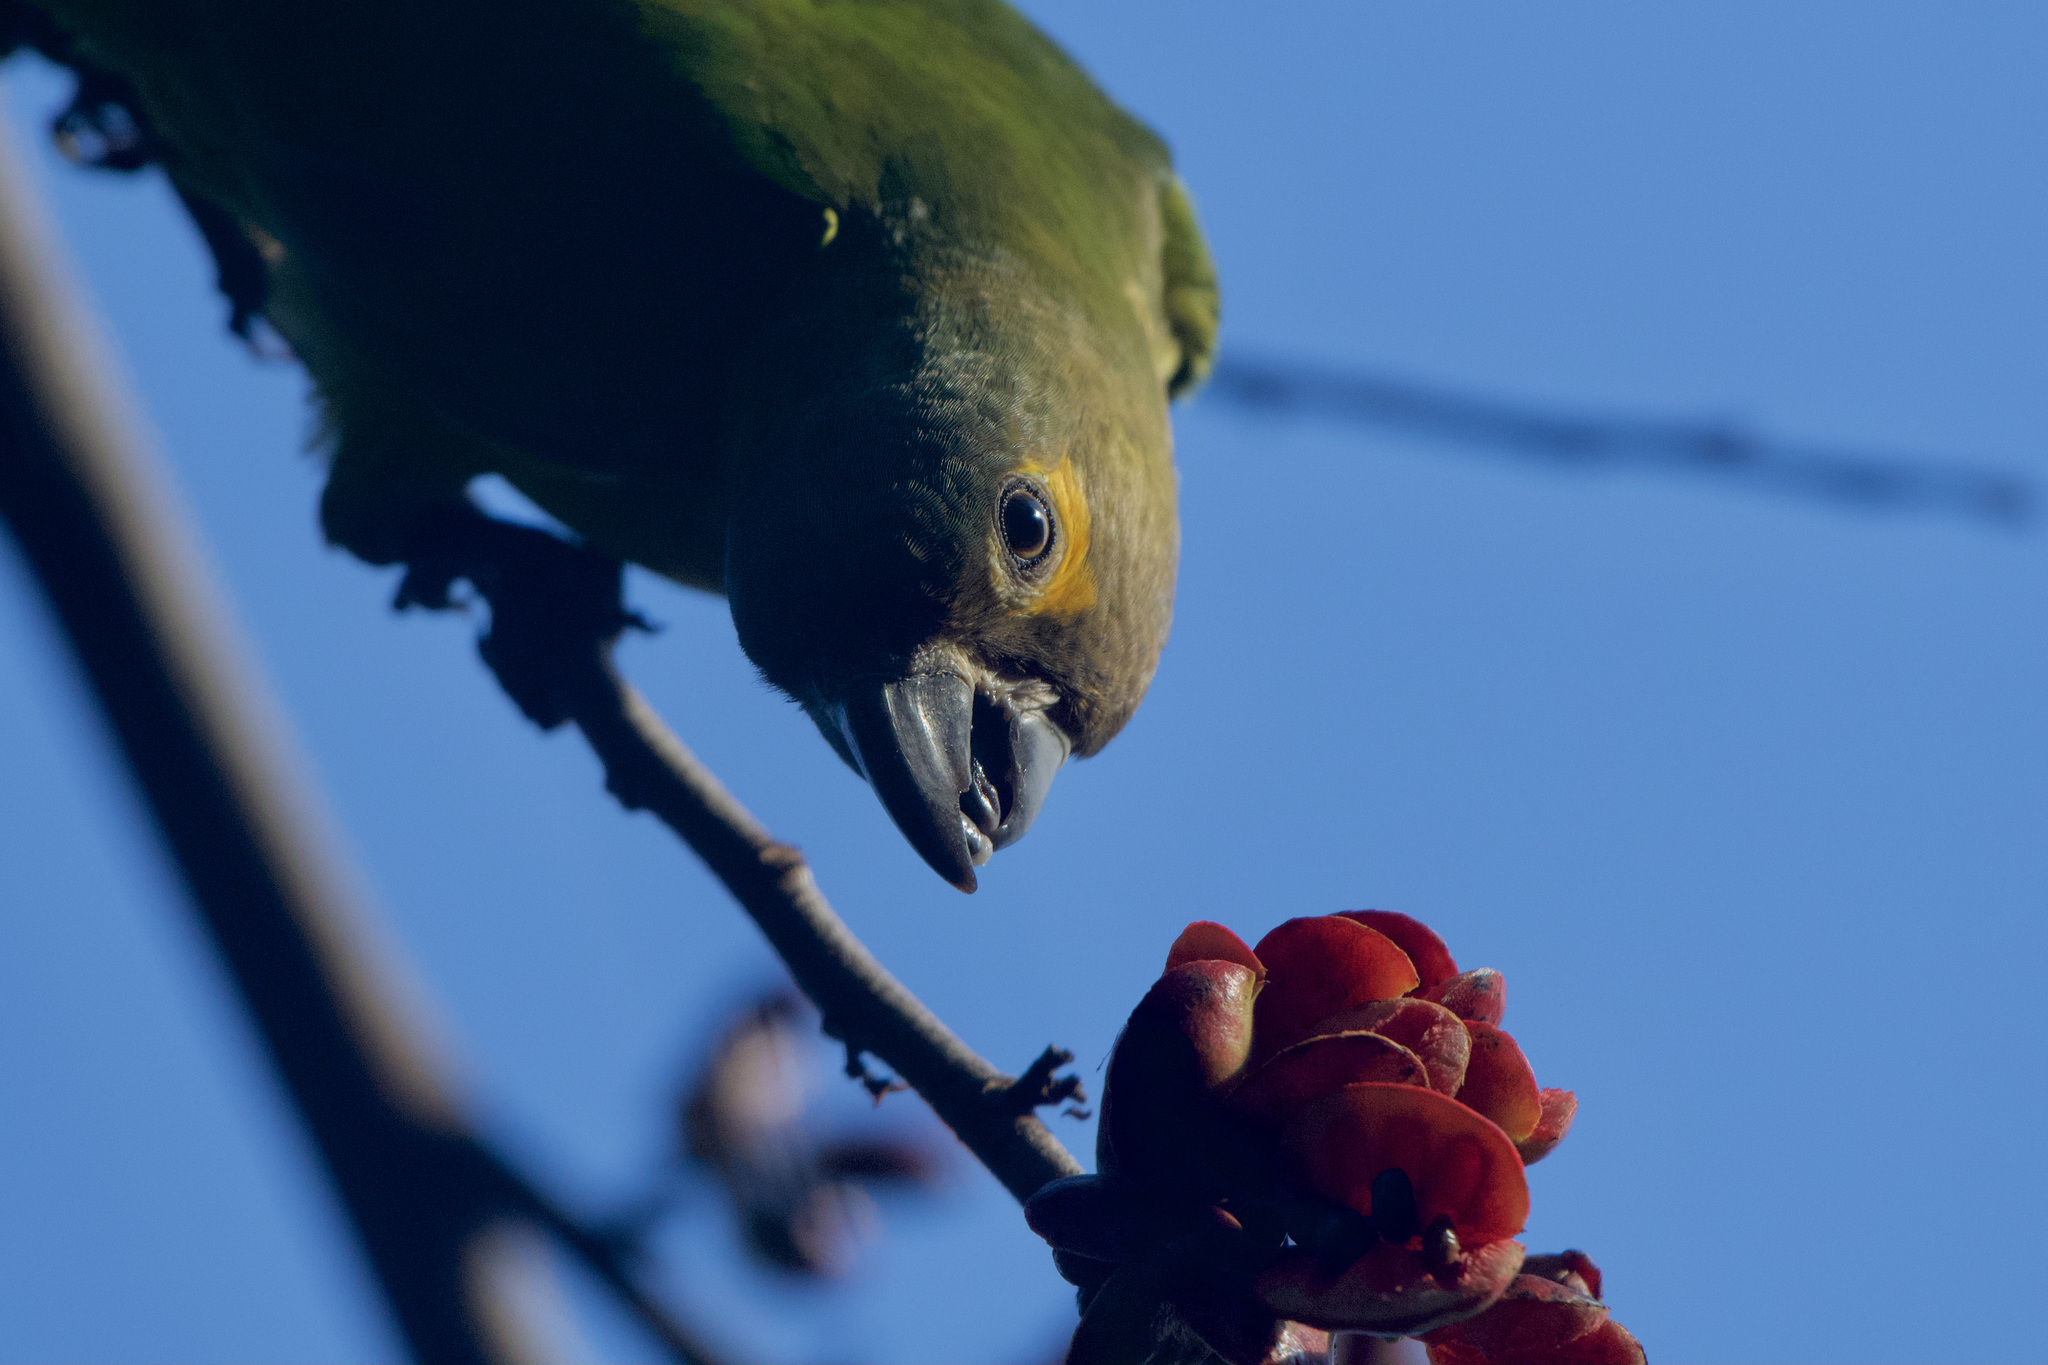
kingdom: Animalia
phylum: Chordata
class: Aves
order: Psittaciformes
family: Psittacidae
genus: Aratinga
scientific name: Aratinga pertinax
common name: Brown-throated parakeet
